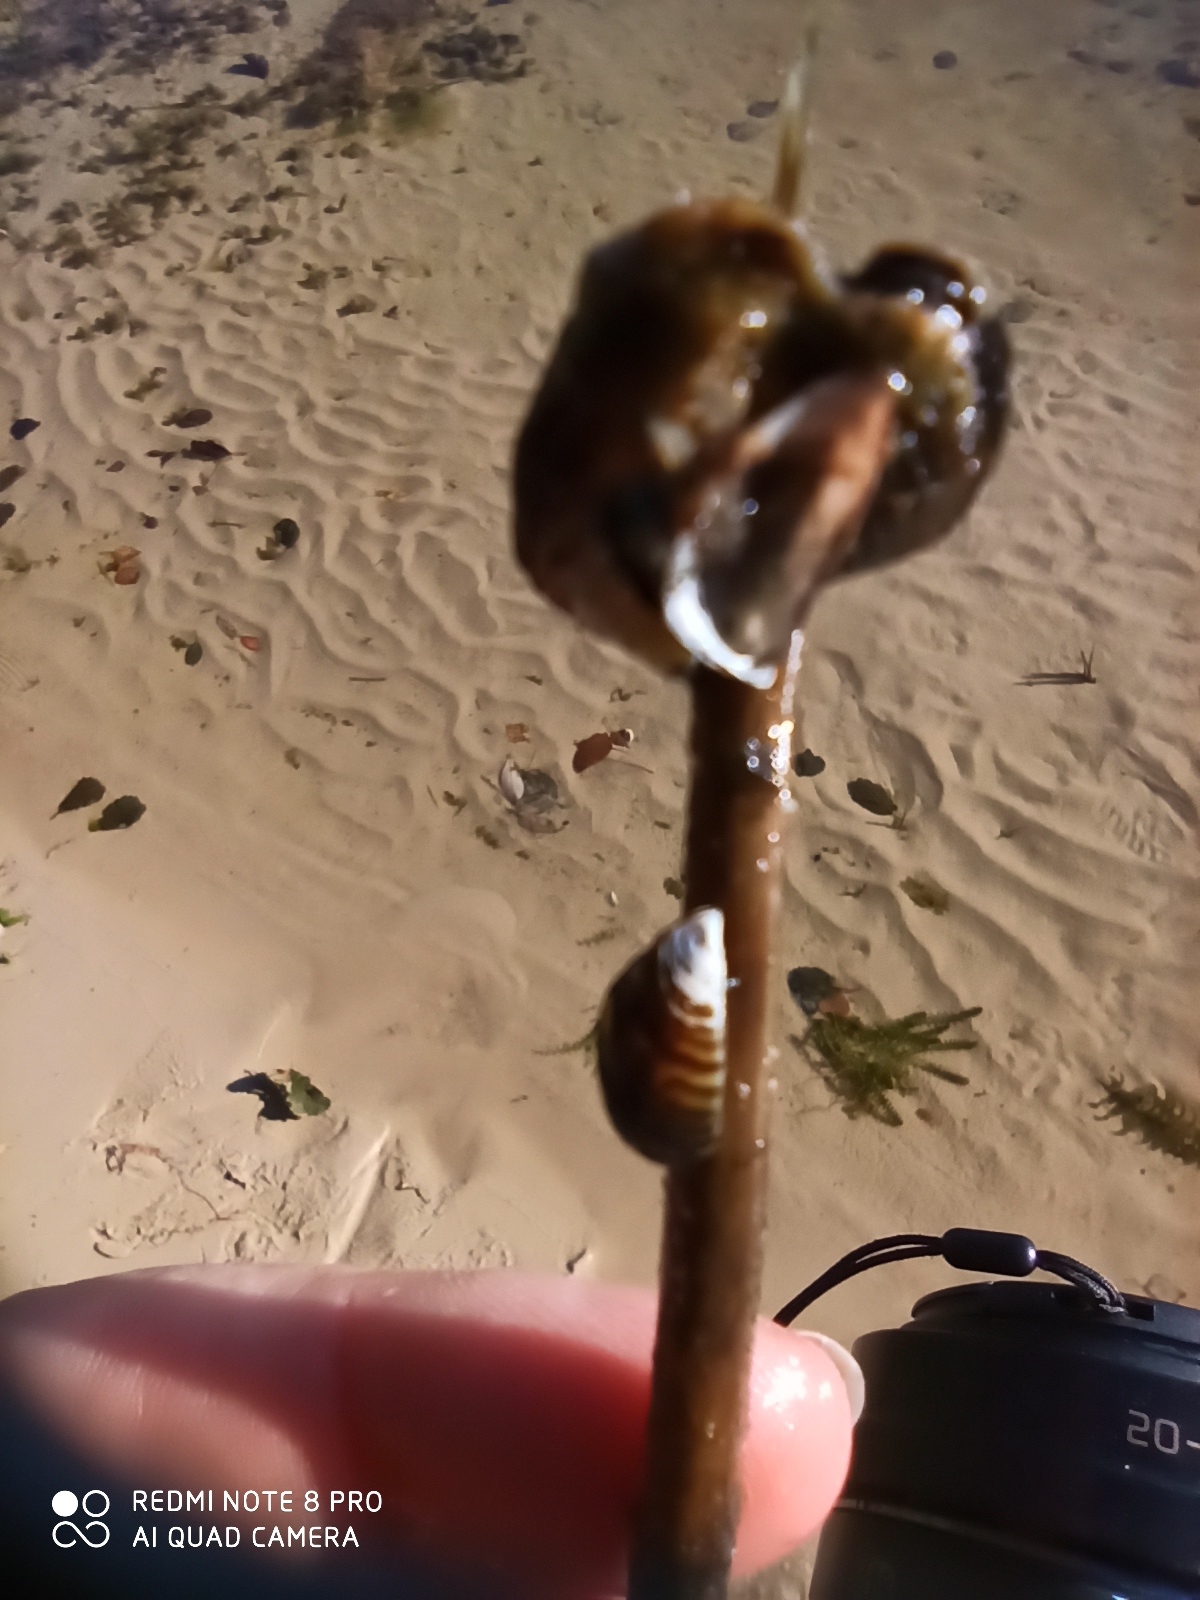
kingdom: Animalia
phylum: Mollusca
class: Bivalvia
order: Myida
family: Dreissenidae
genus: Dreissena
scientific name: Dreissena polymorpha
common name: Zebra mussel
